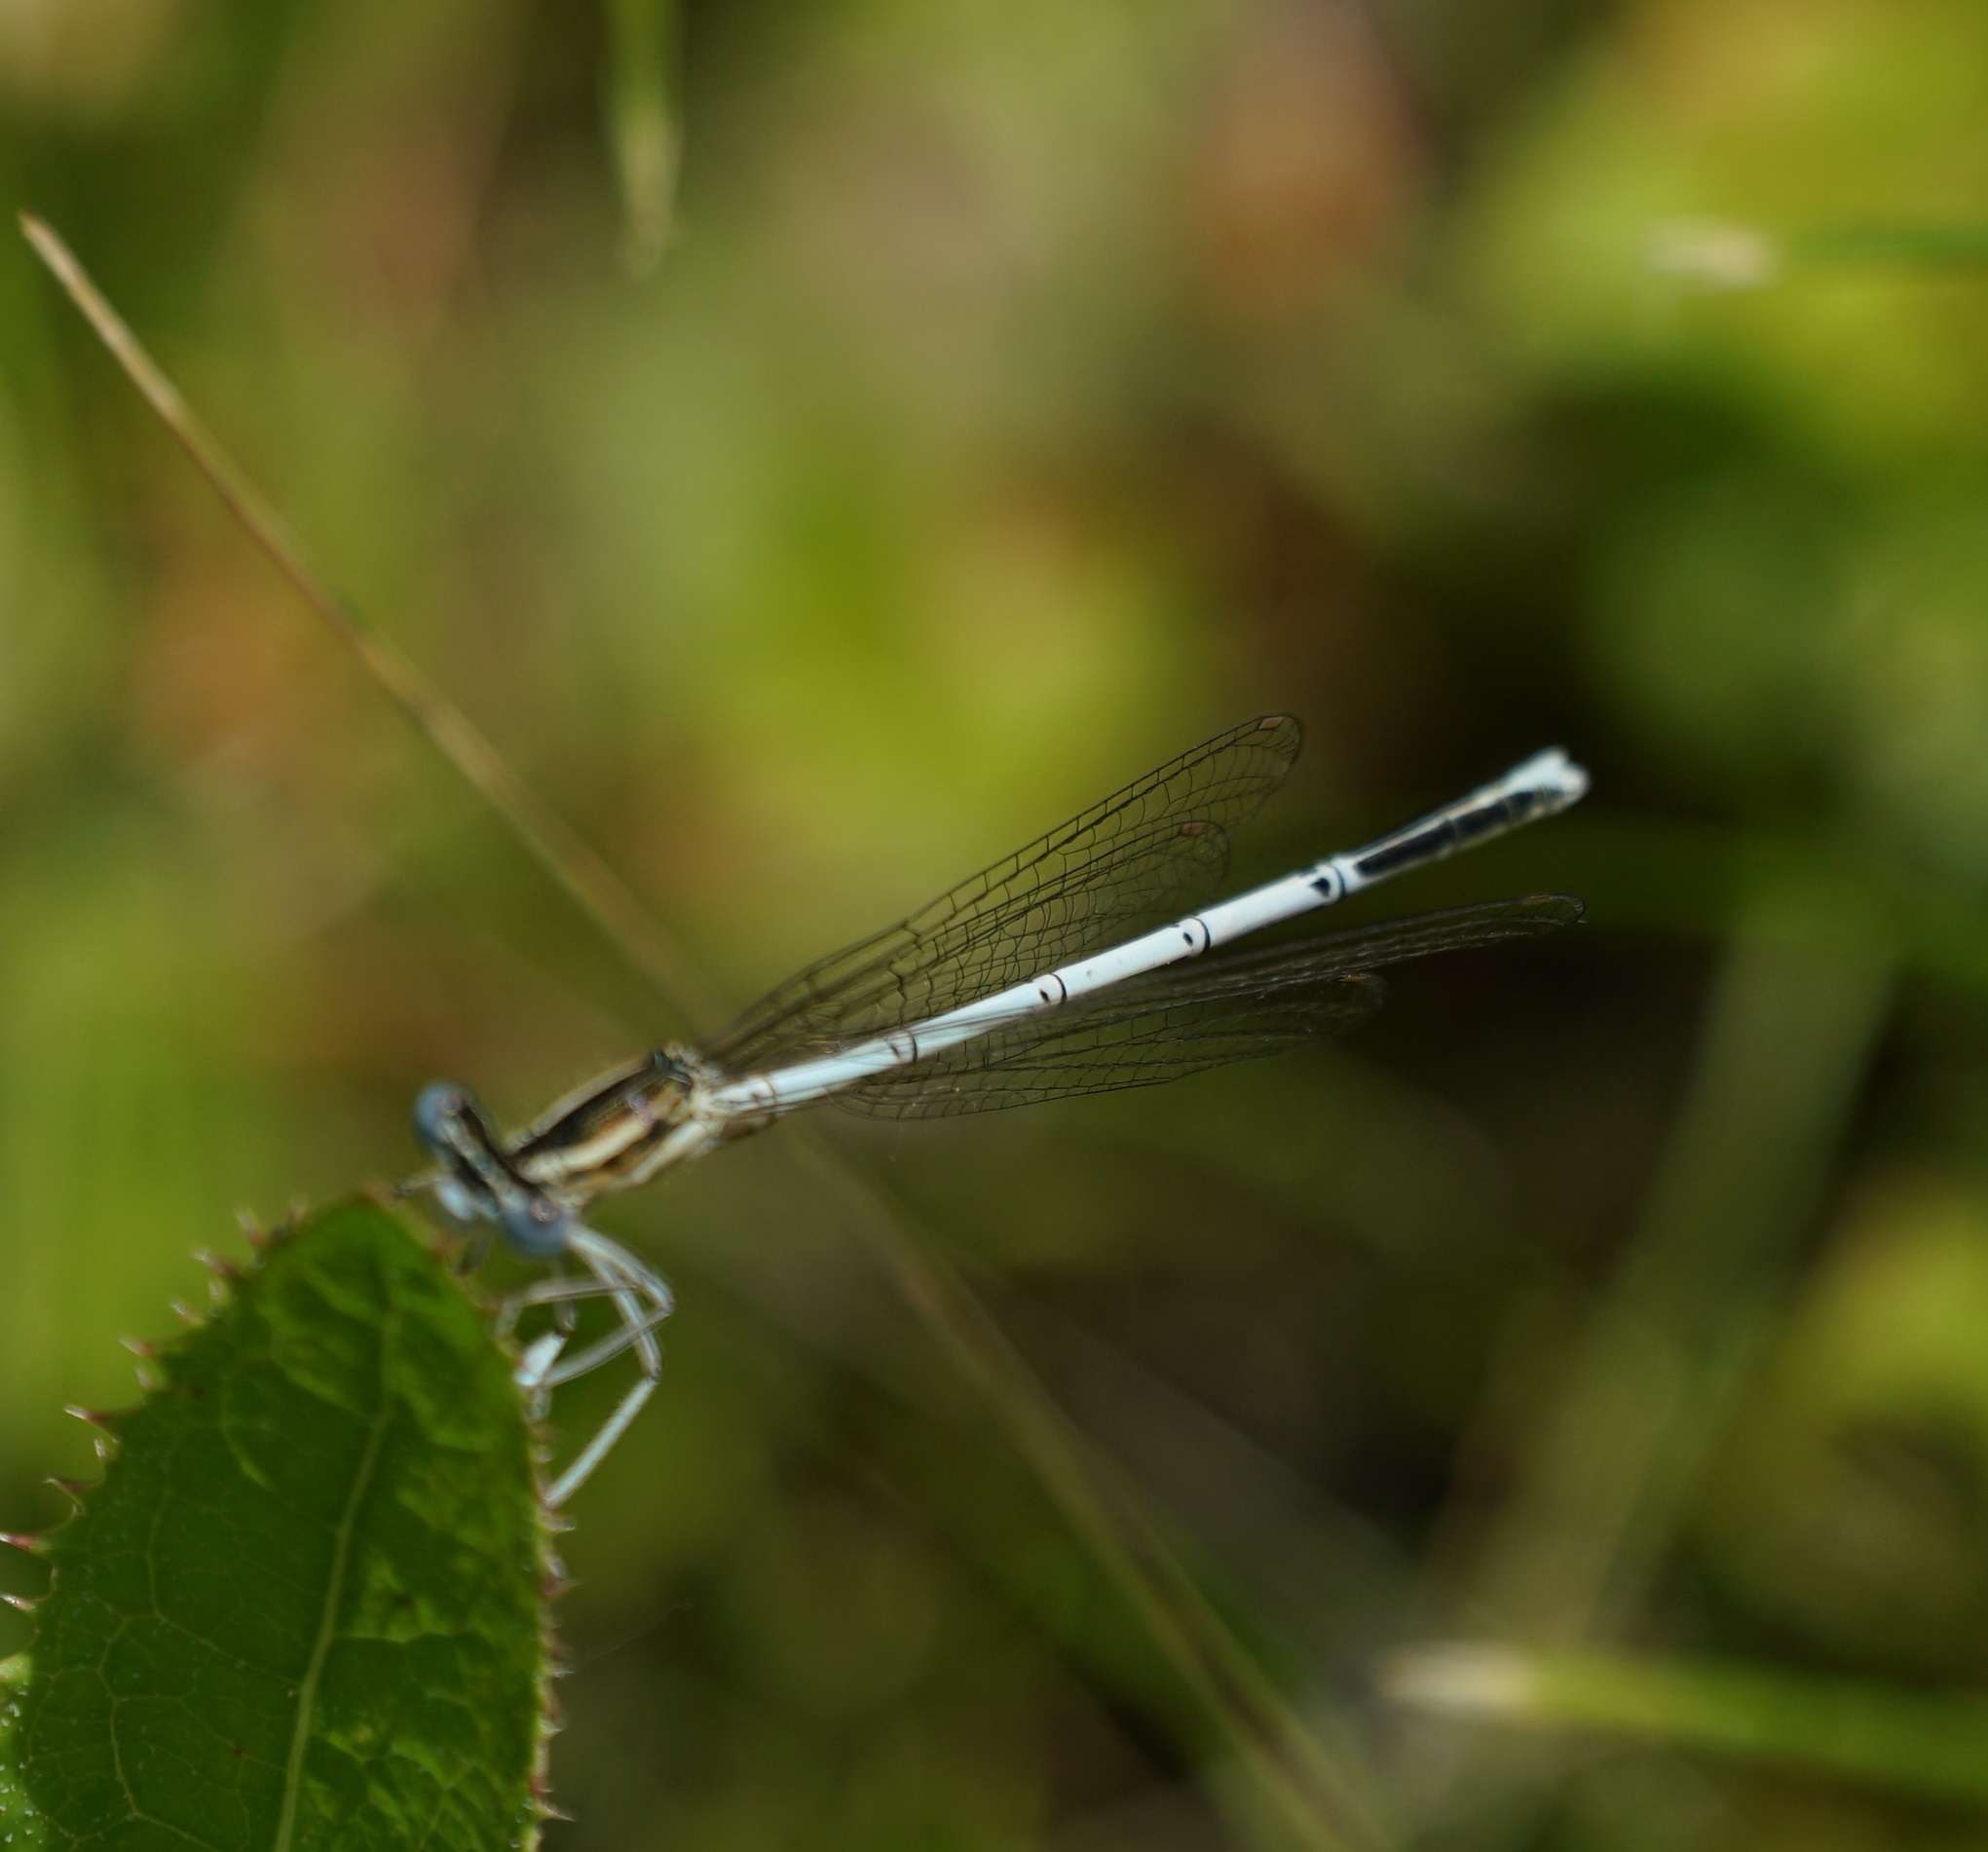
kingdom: Animalia
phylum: Arthropoda
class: Insecta
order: Odonata
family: Platycnemididae
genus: Platycnemis
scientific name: Platycnemis pennipes
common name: White-legged damselfly
